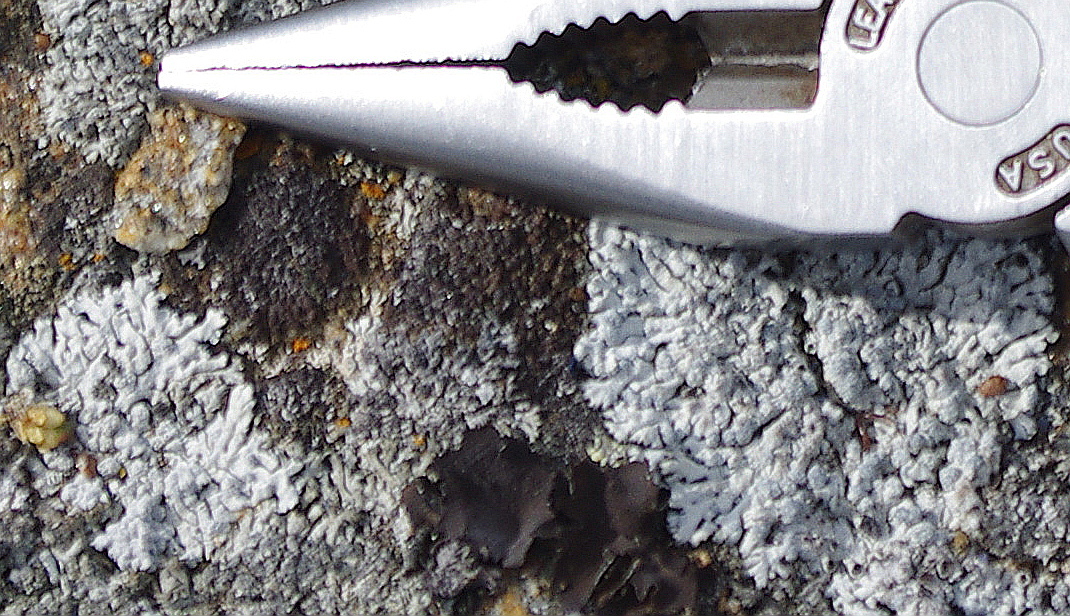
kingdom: Fungi
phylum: Ascomycota
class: Lecanoromycetes
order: Caliciales
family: Physciaceae
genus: Physcia
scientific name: Physcia
